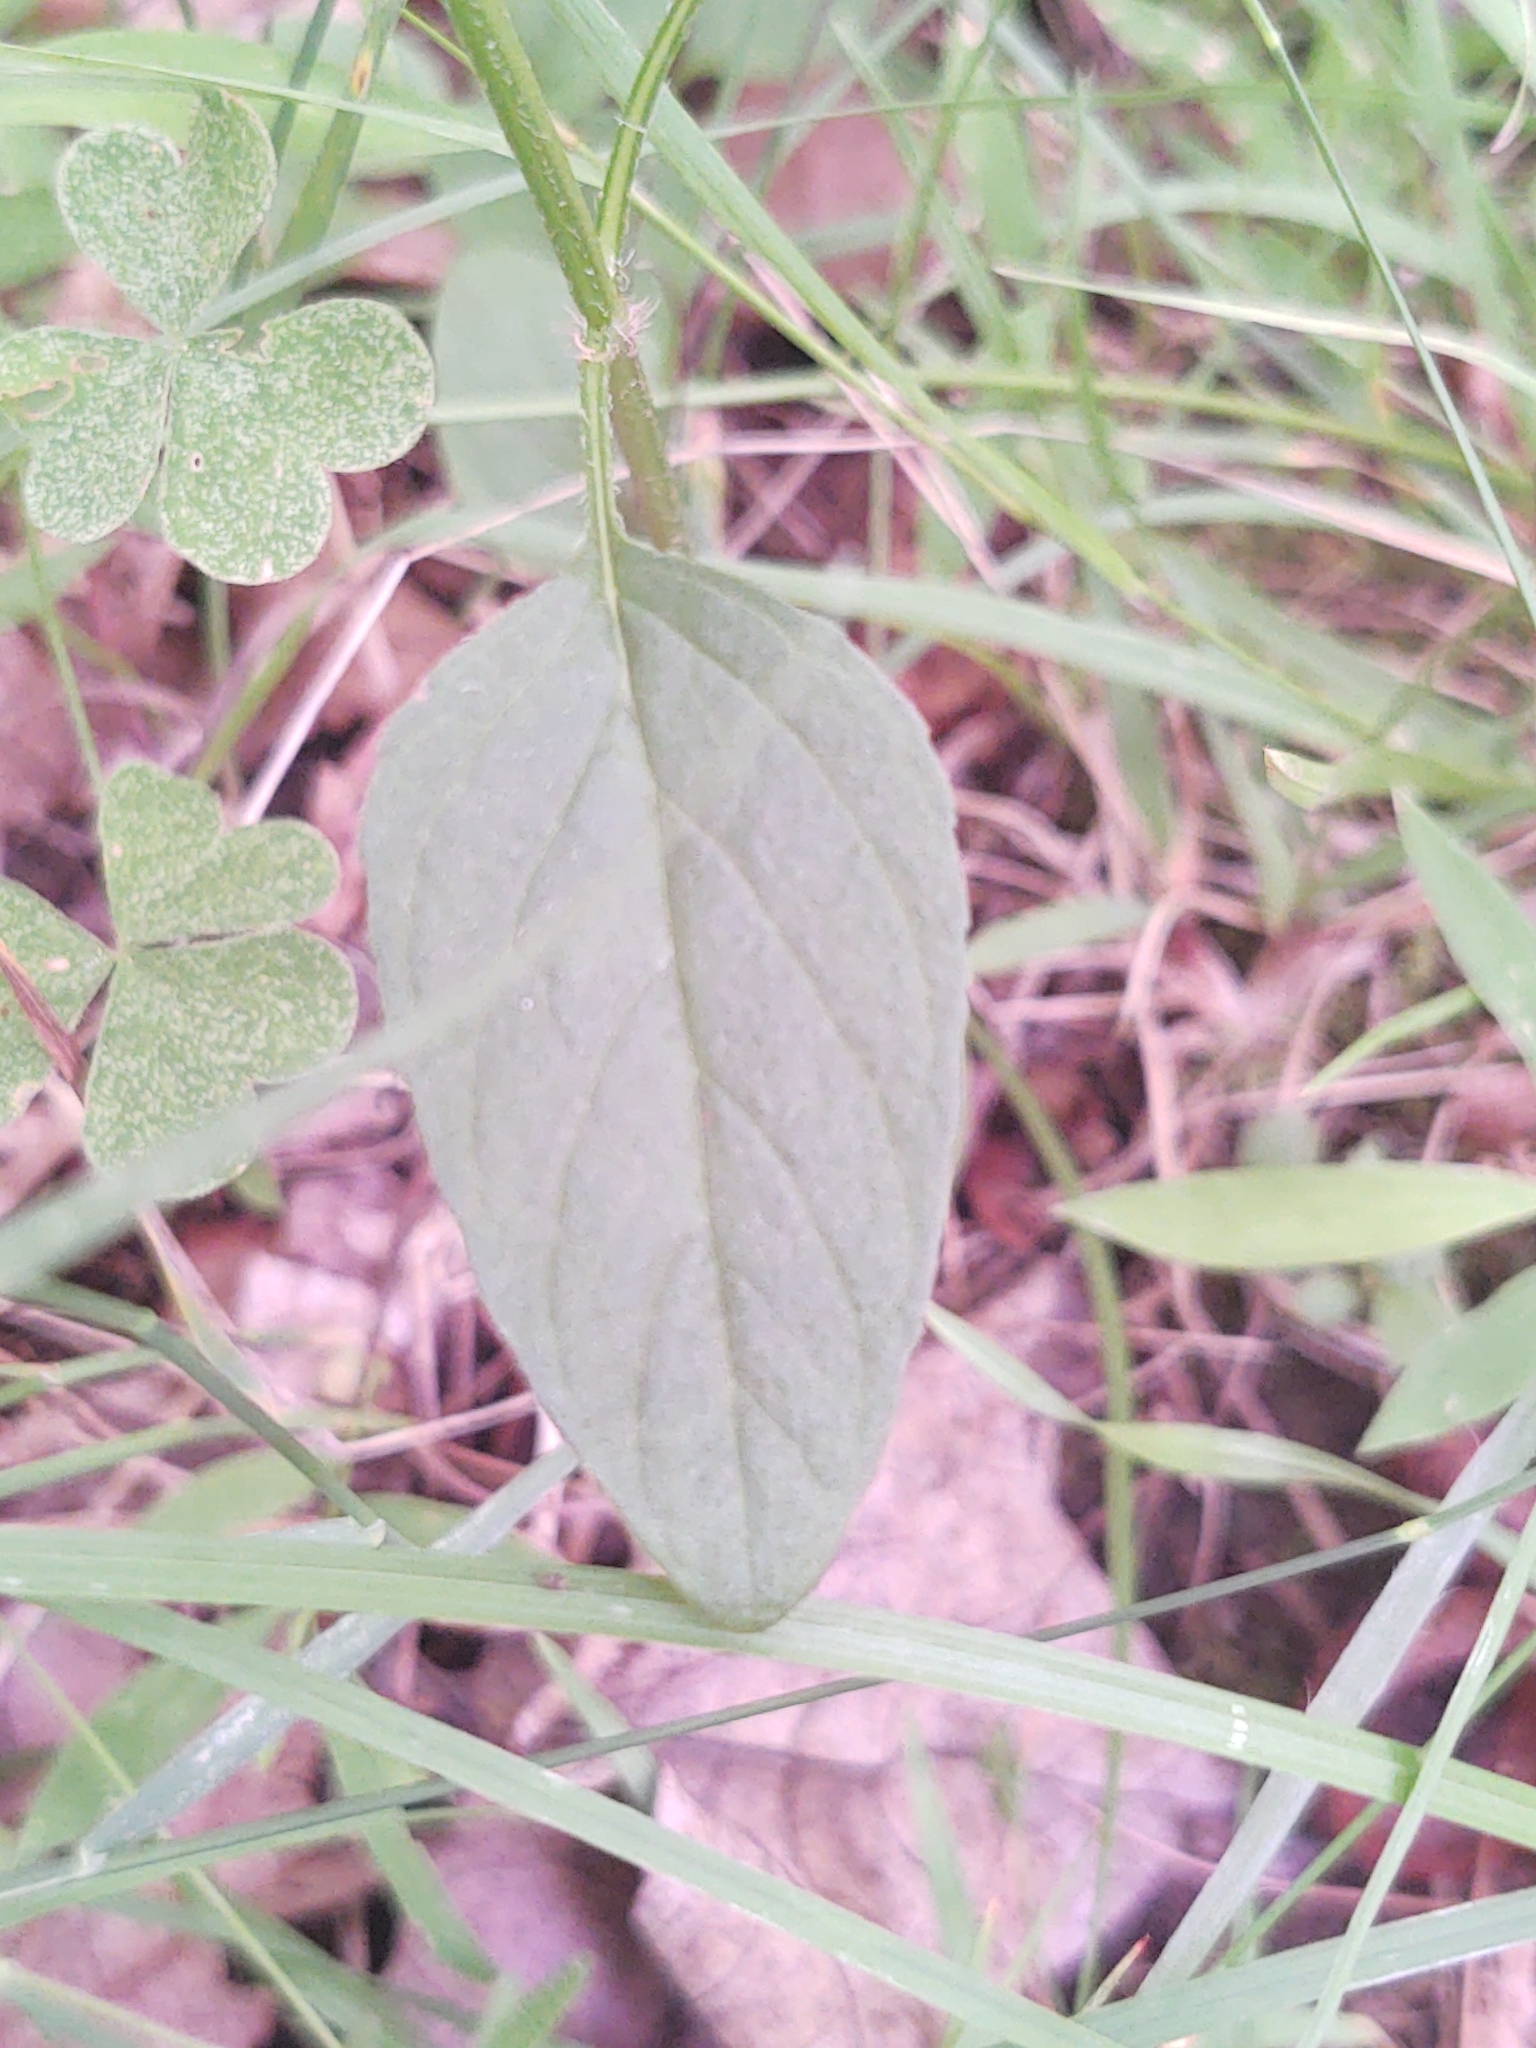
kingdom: Plantae
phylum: Tracheophyta
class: Magnoliopsida
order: Lamiales
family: Lamiaceae
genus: Prunella
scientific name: Prunella vulgaris
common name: Heal-all
